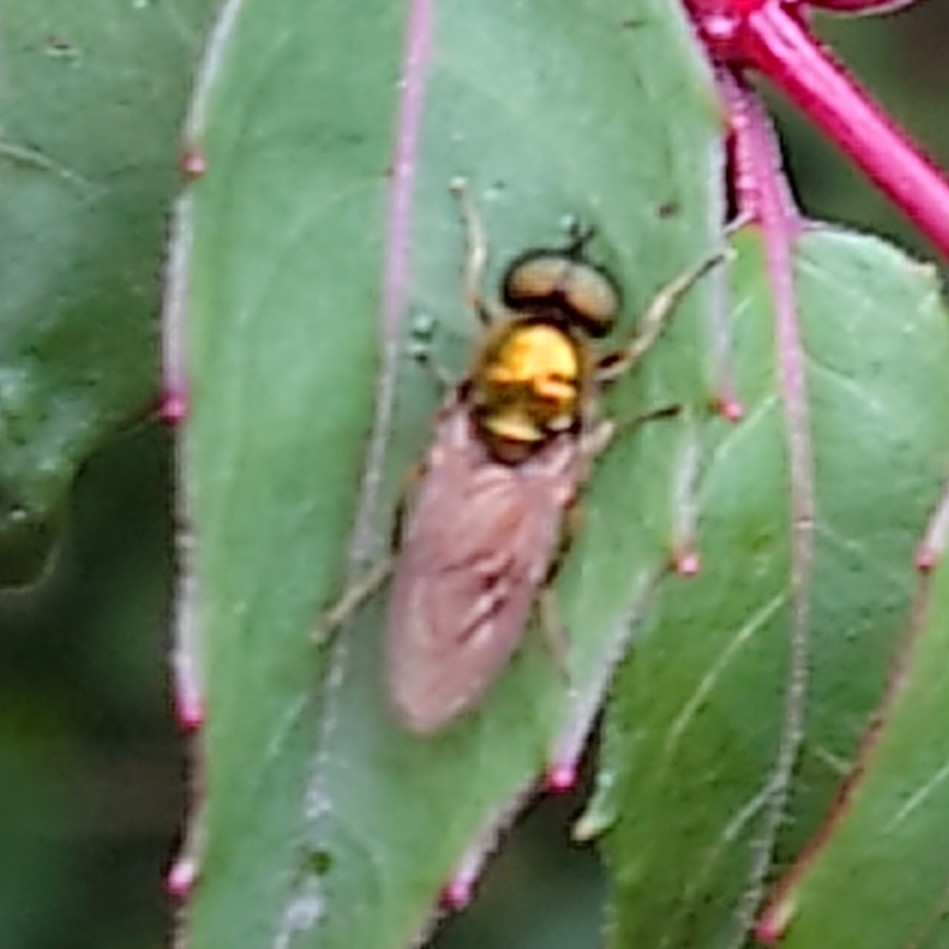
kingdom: Animalia
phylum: Arthropoda
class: Insecta
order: Diptera
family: Stratiomyidae
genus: Chloromyia
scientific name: Chloromyia formosa
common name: Soldier fly
